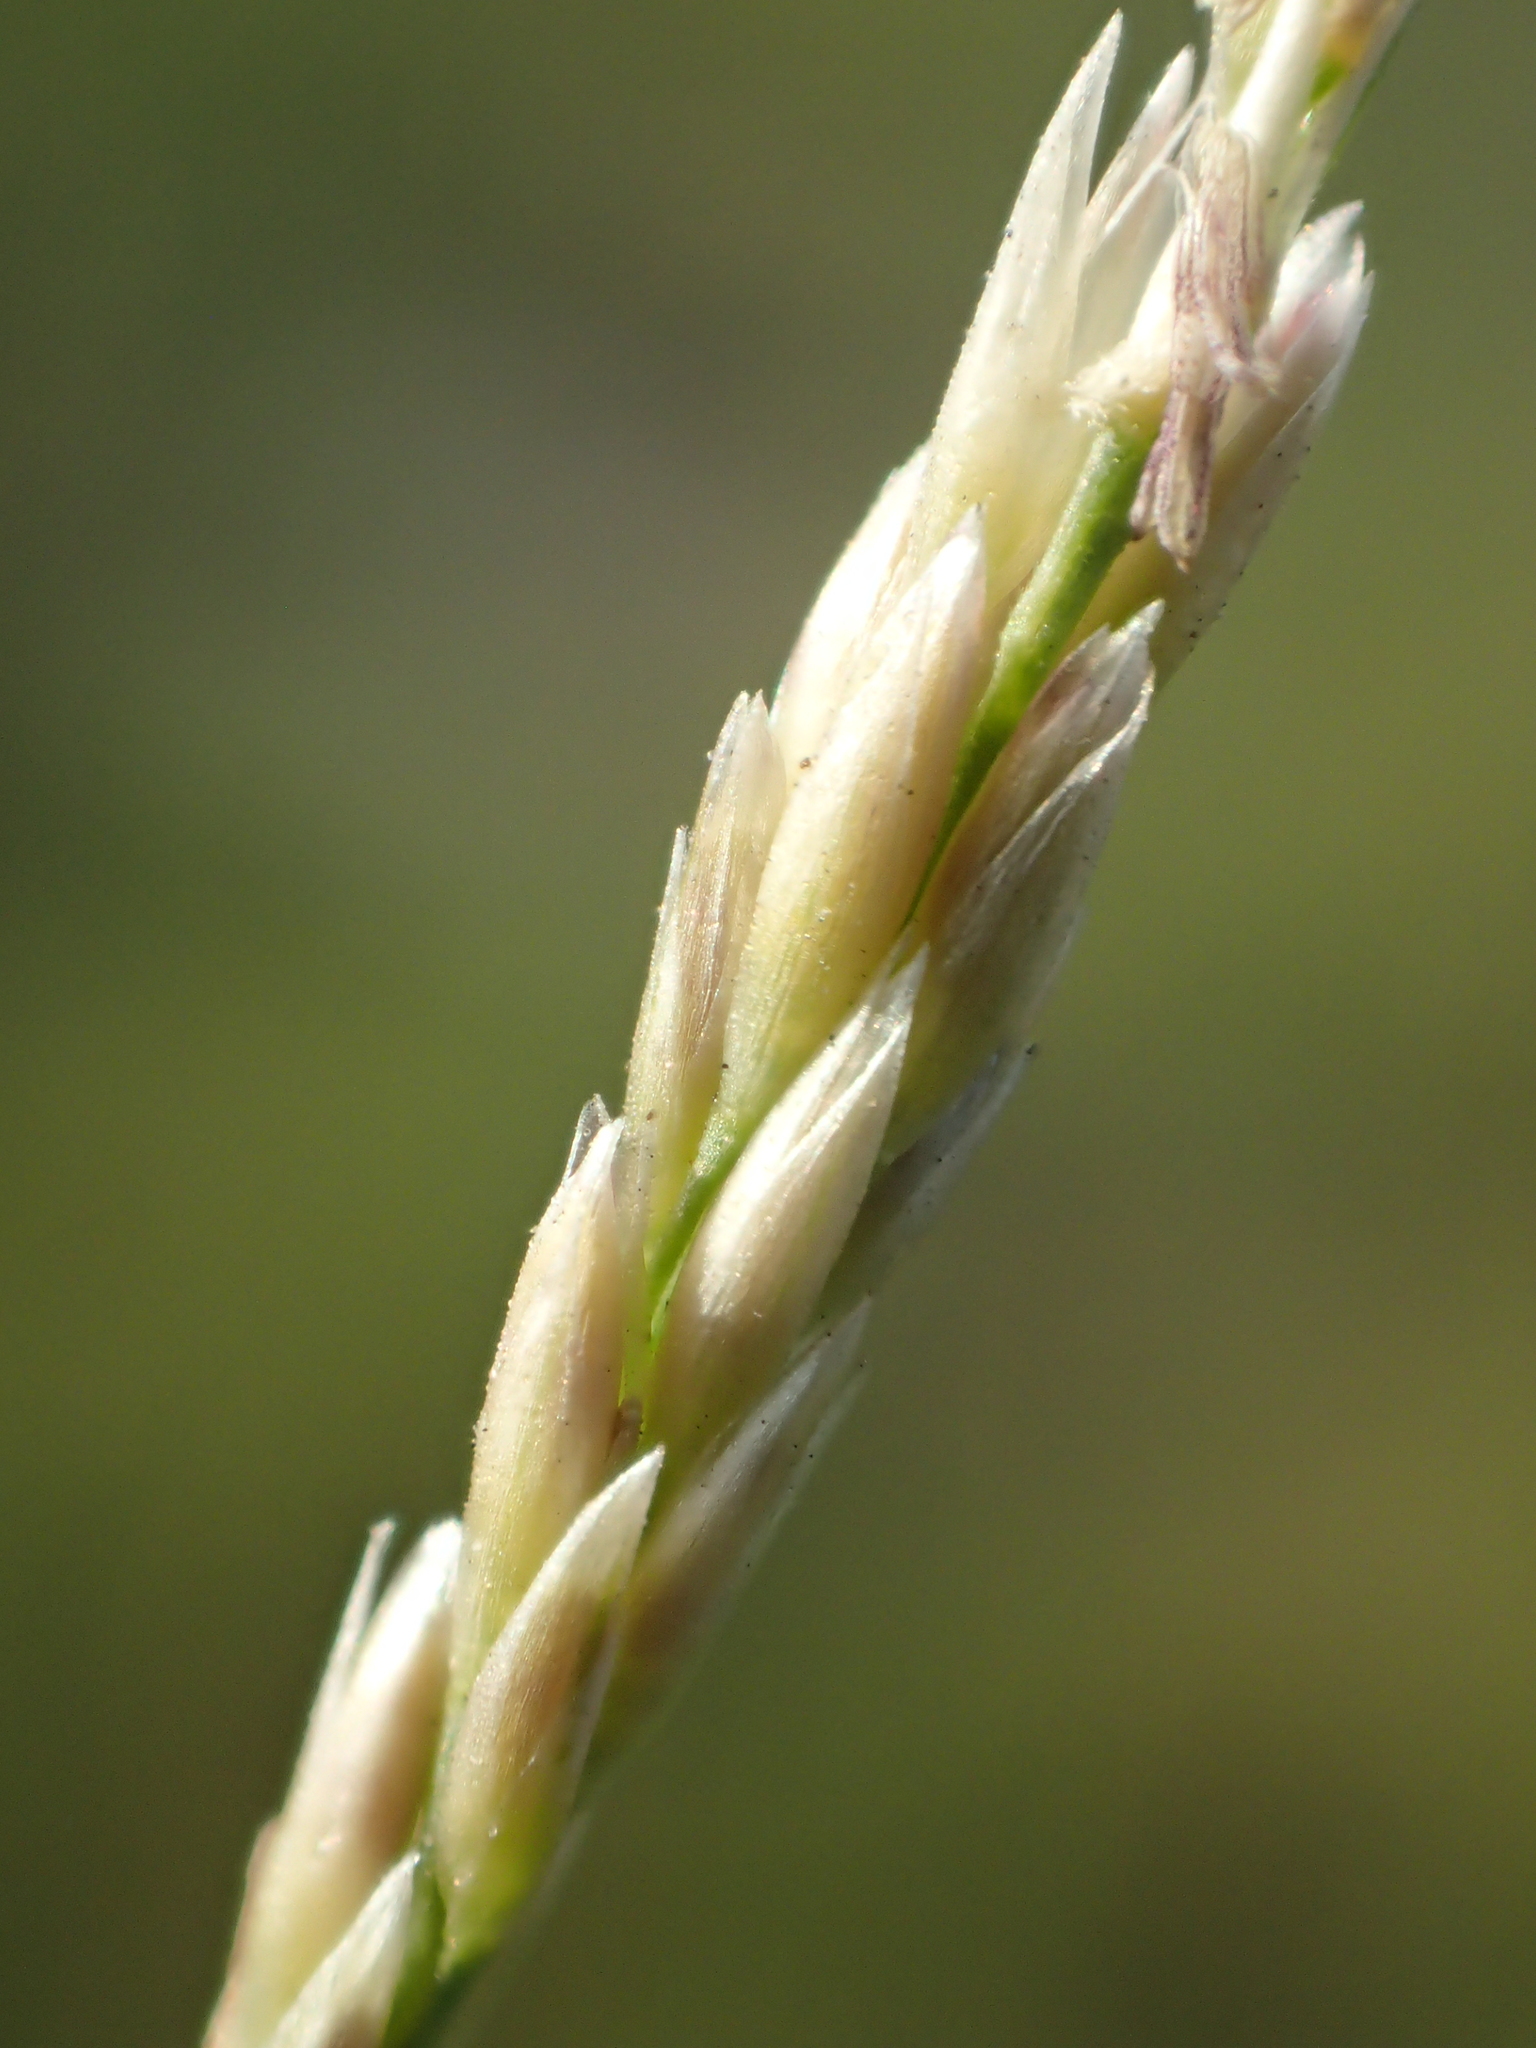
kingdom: Plantae
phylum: Tracheophyta
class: Liliopsida
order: Poales
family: Poaceae
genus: Sporobolus
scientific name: Sporobolus virginicus
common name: Beach dropseed
